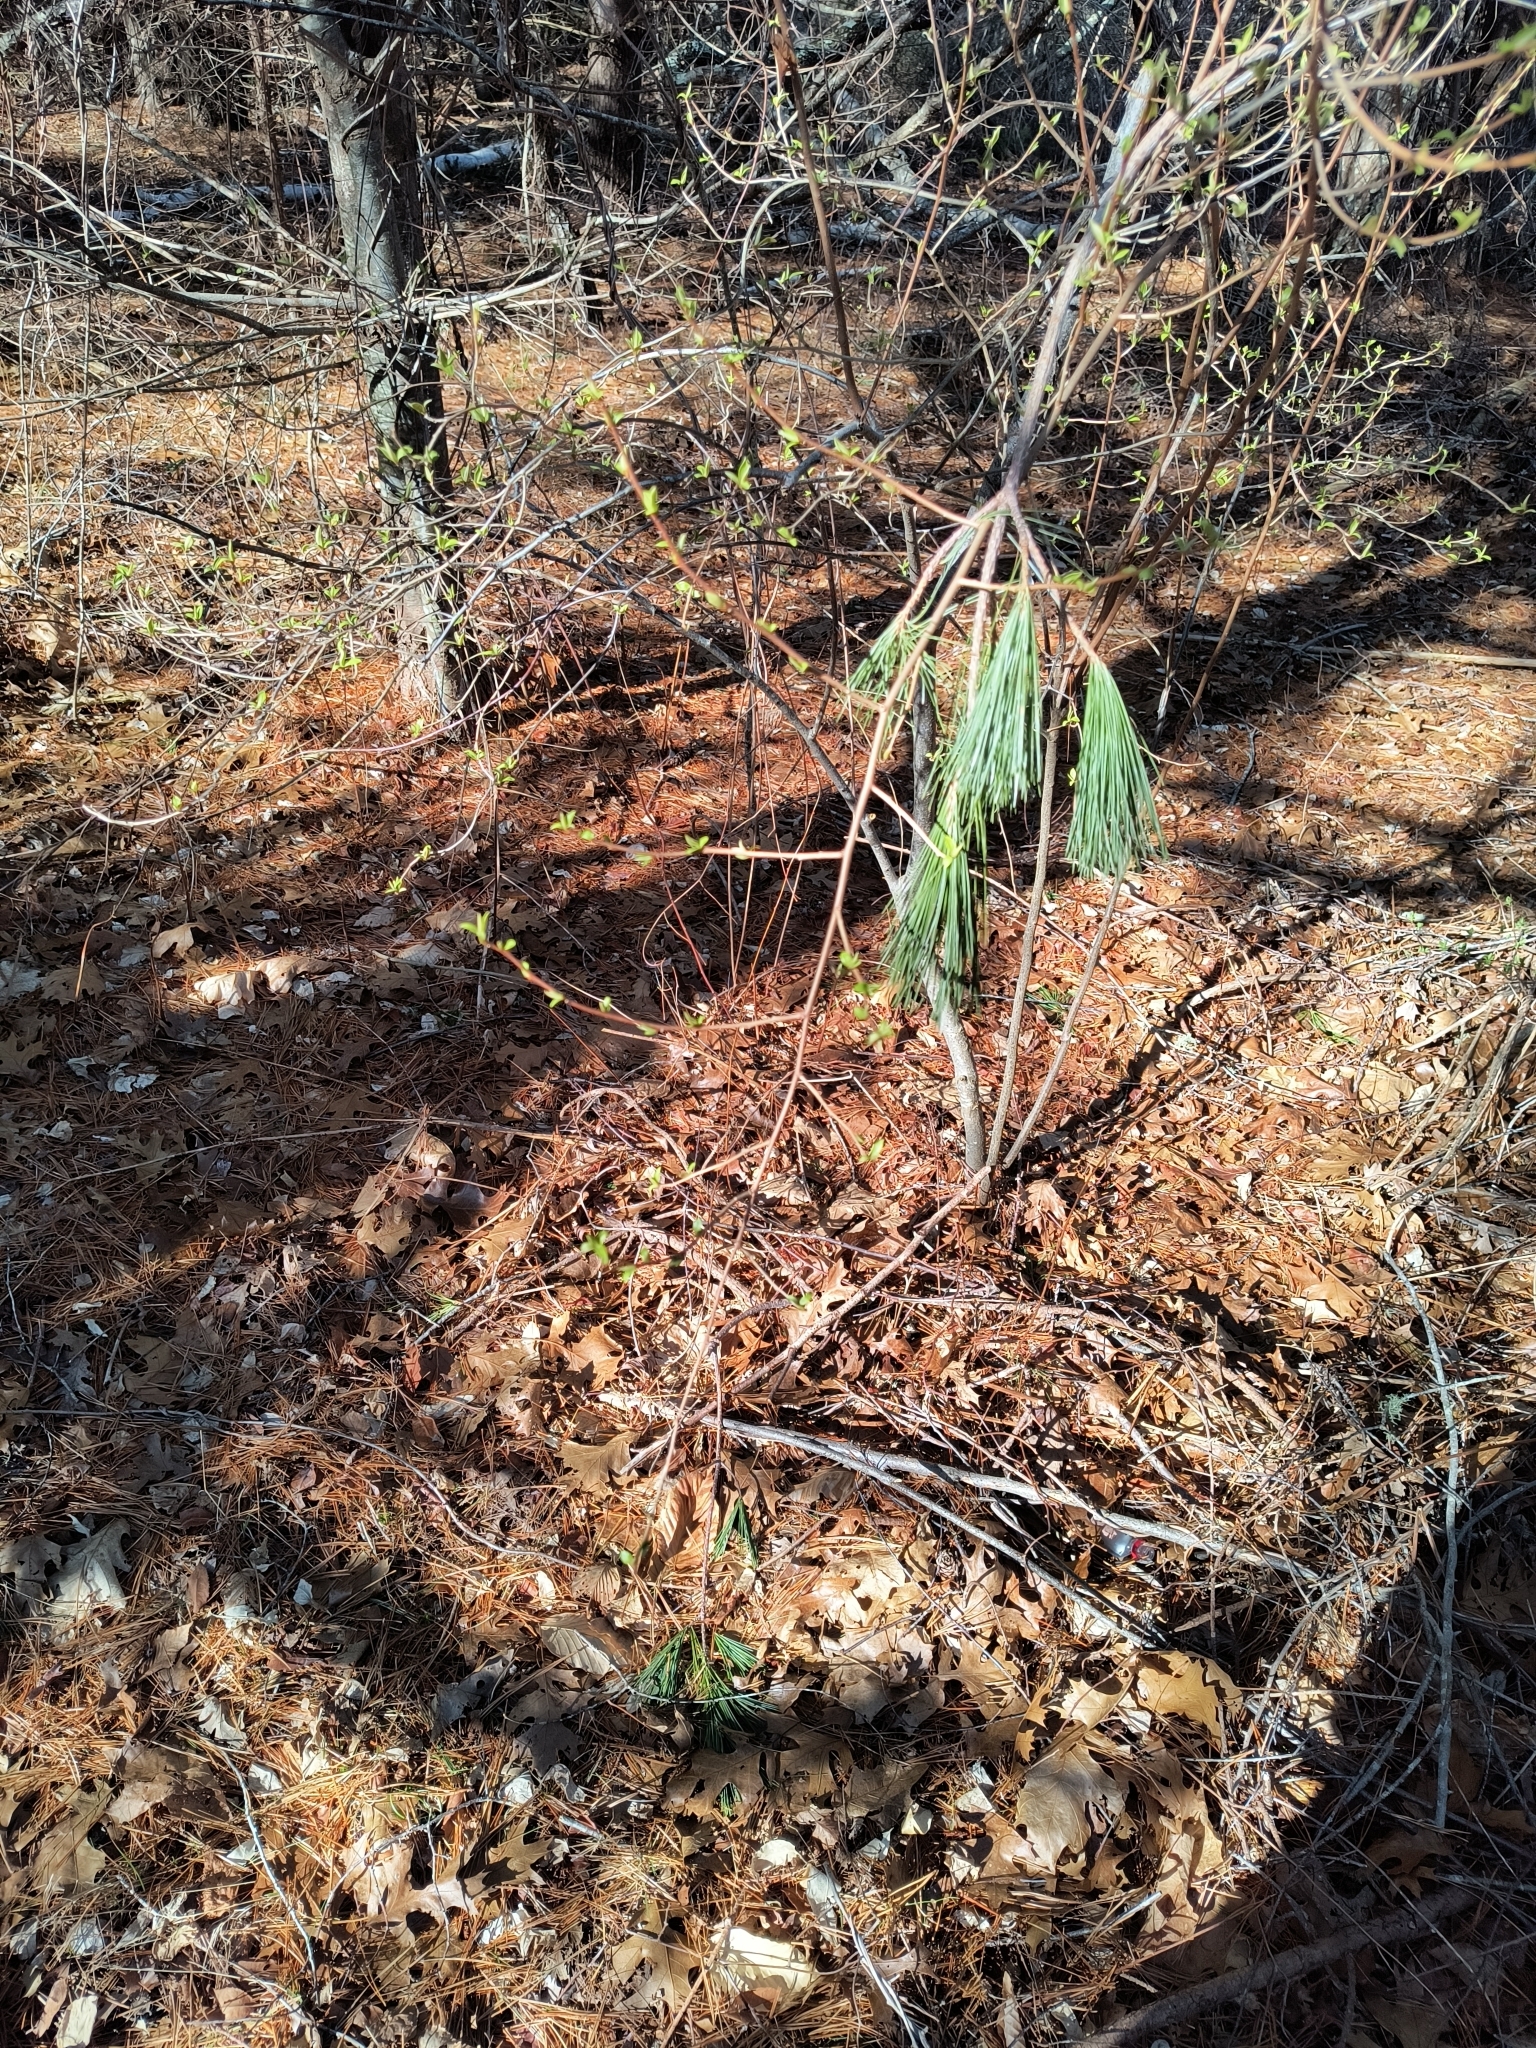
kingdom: Plantae
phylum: Tracheophyta
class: Magnoliopsida
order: Rosales
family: Elaeagnaceae
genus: Elaeagnus
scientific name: Elaeagnus umbellata
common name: Autumn olive
